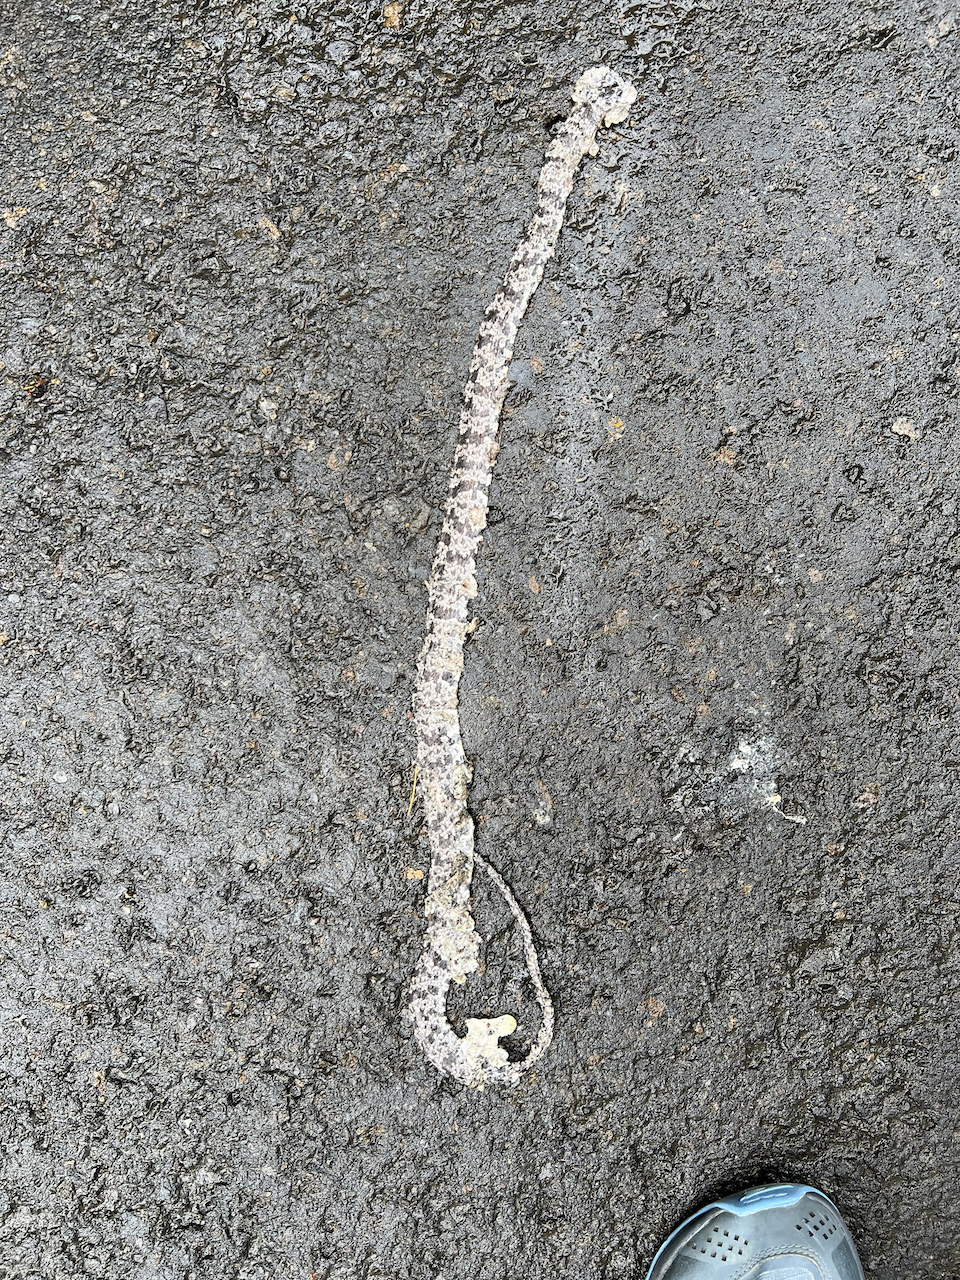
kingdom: Animalia
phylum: Chordata
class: Squamata
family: Colubridae
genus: Sibon
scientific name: Sibon nebulatus
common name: Cloudy snail-eating snake
